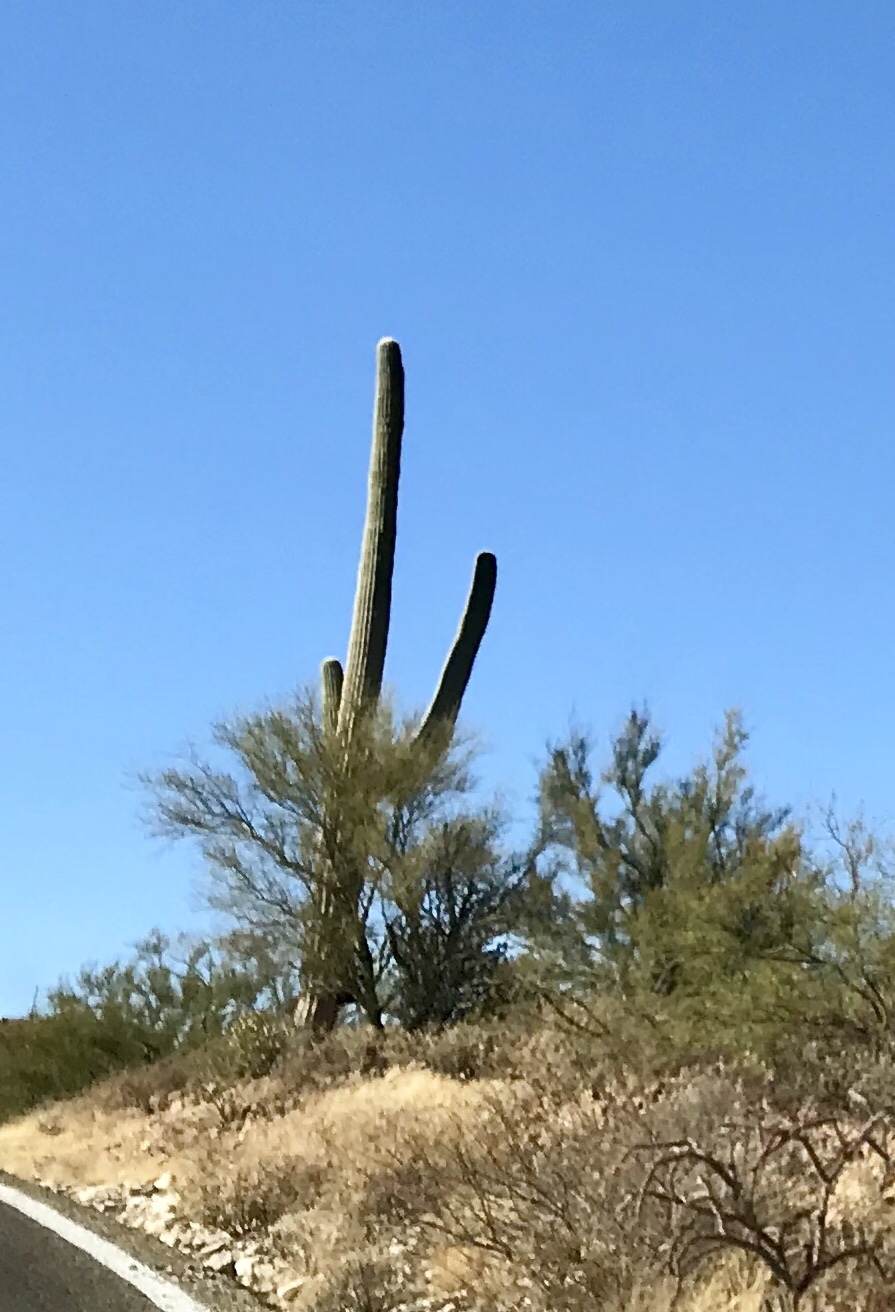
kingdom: Plantae
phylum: Tracheophyta
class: Magnoliopsida
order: Caryophyllales
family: Cactaceae
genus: Carnegiea
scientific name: Carnegiea gigantea
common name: Saguaro
